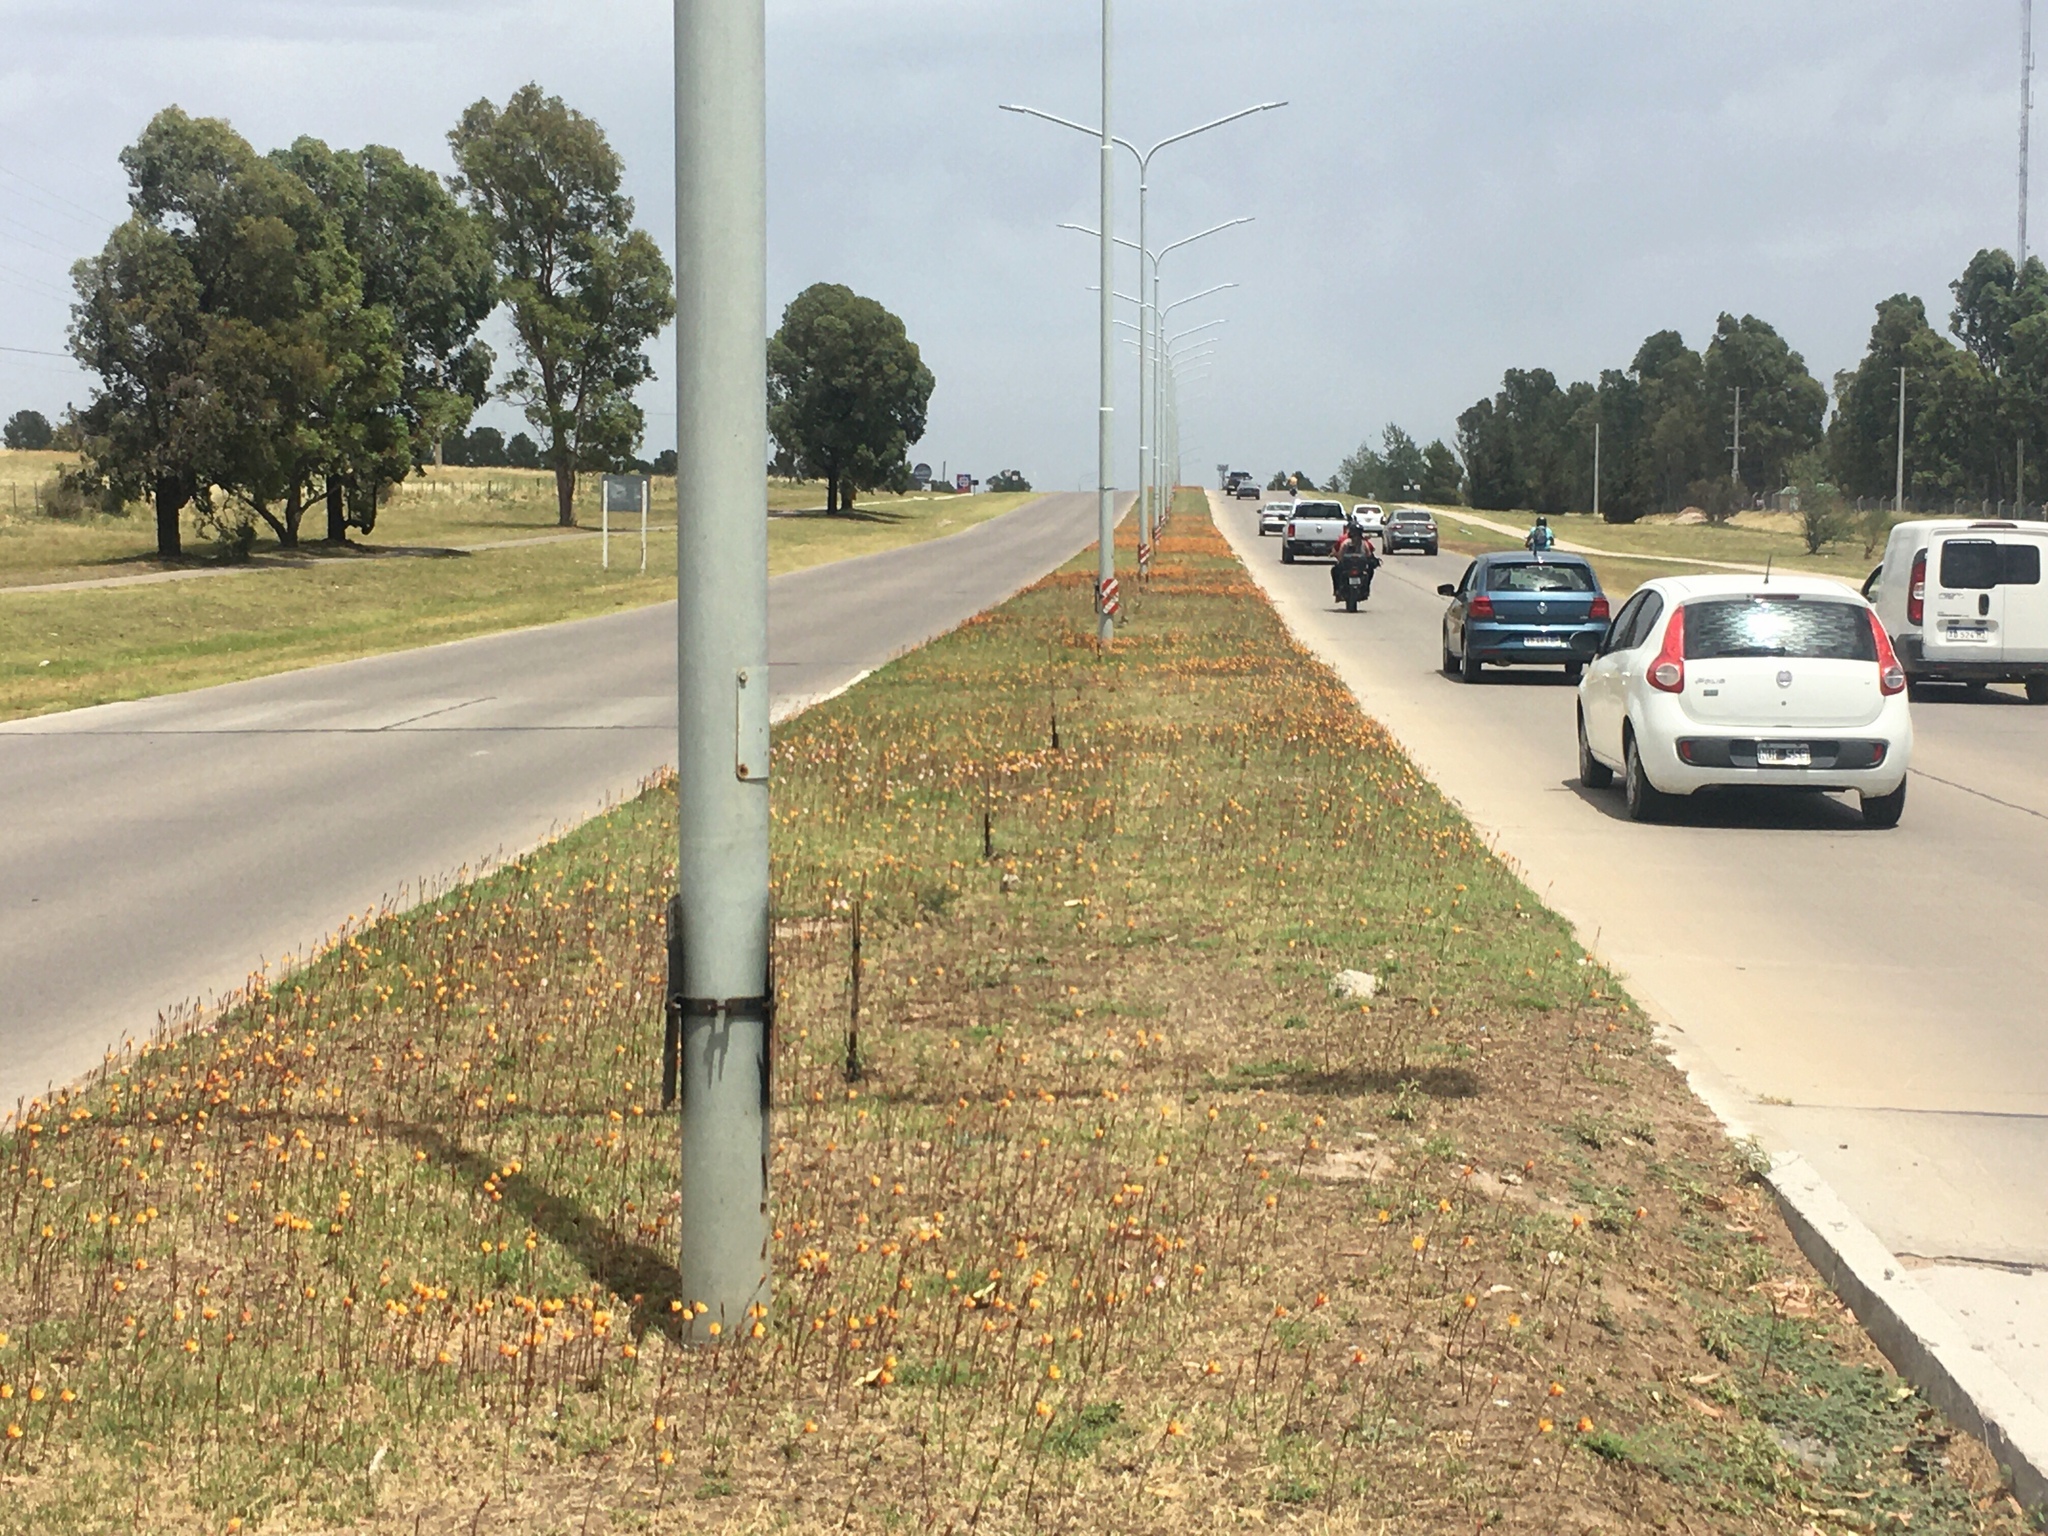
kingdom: Plantae
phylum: Tracheophyta
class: Liliopsida
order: Asparagales
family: Amaryllidaceae
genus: Zephyranthes
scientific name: Zephyranthes tubispatha
